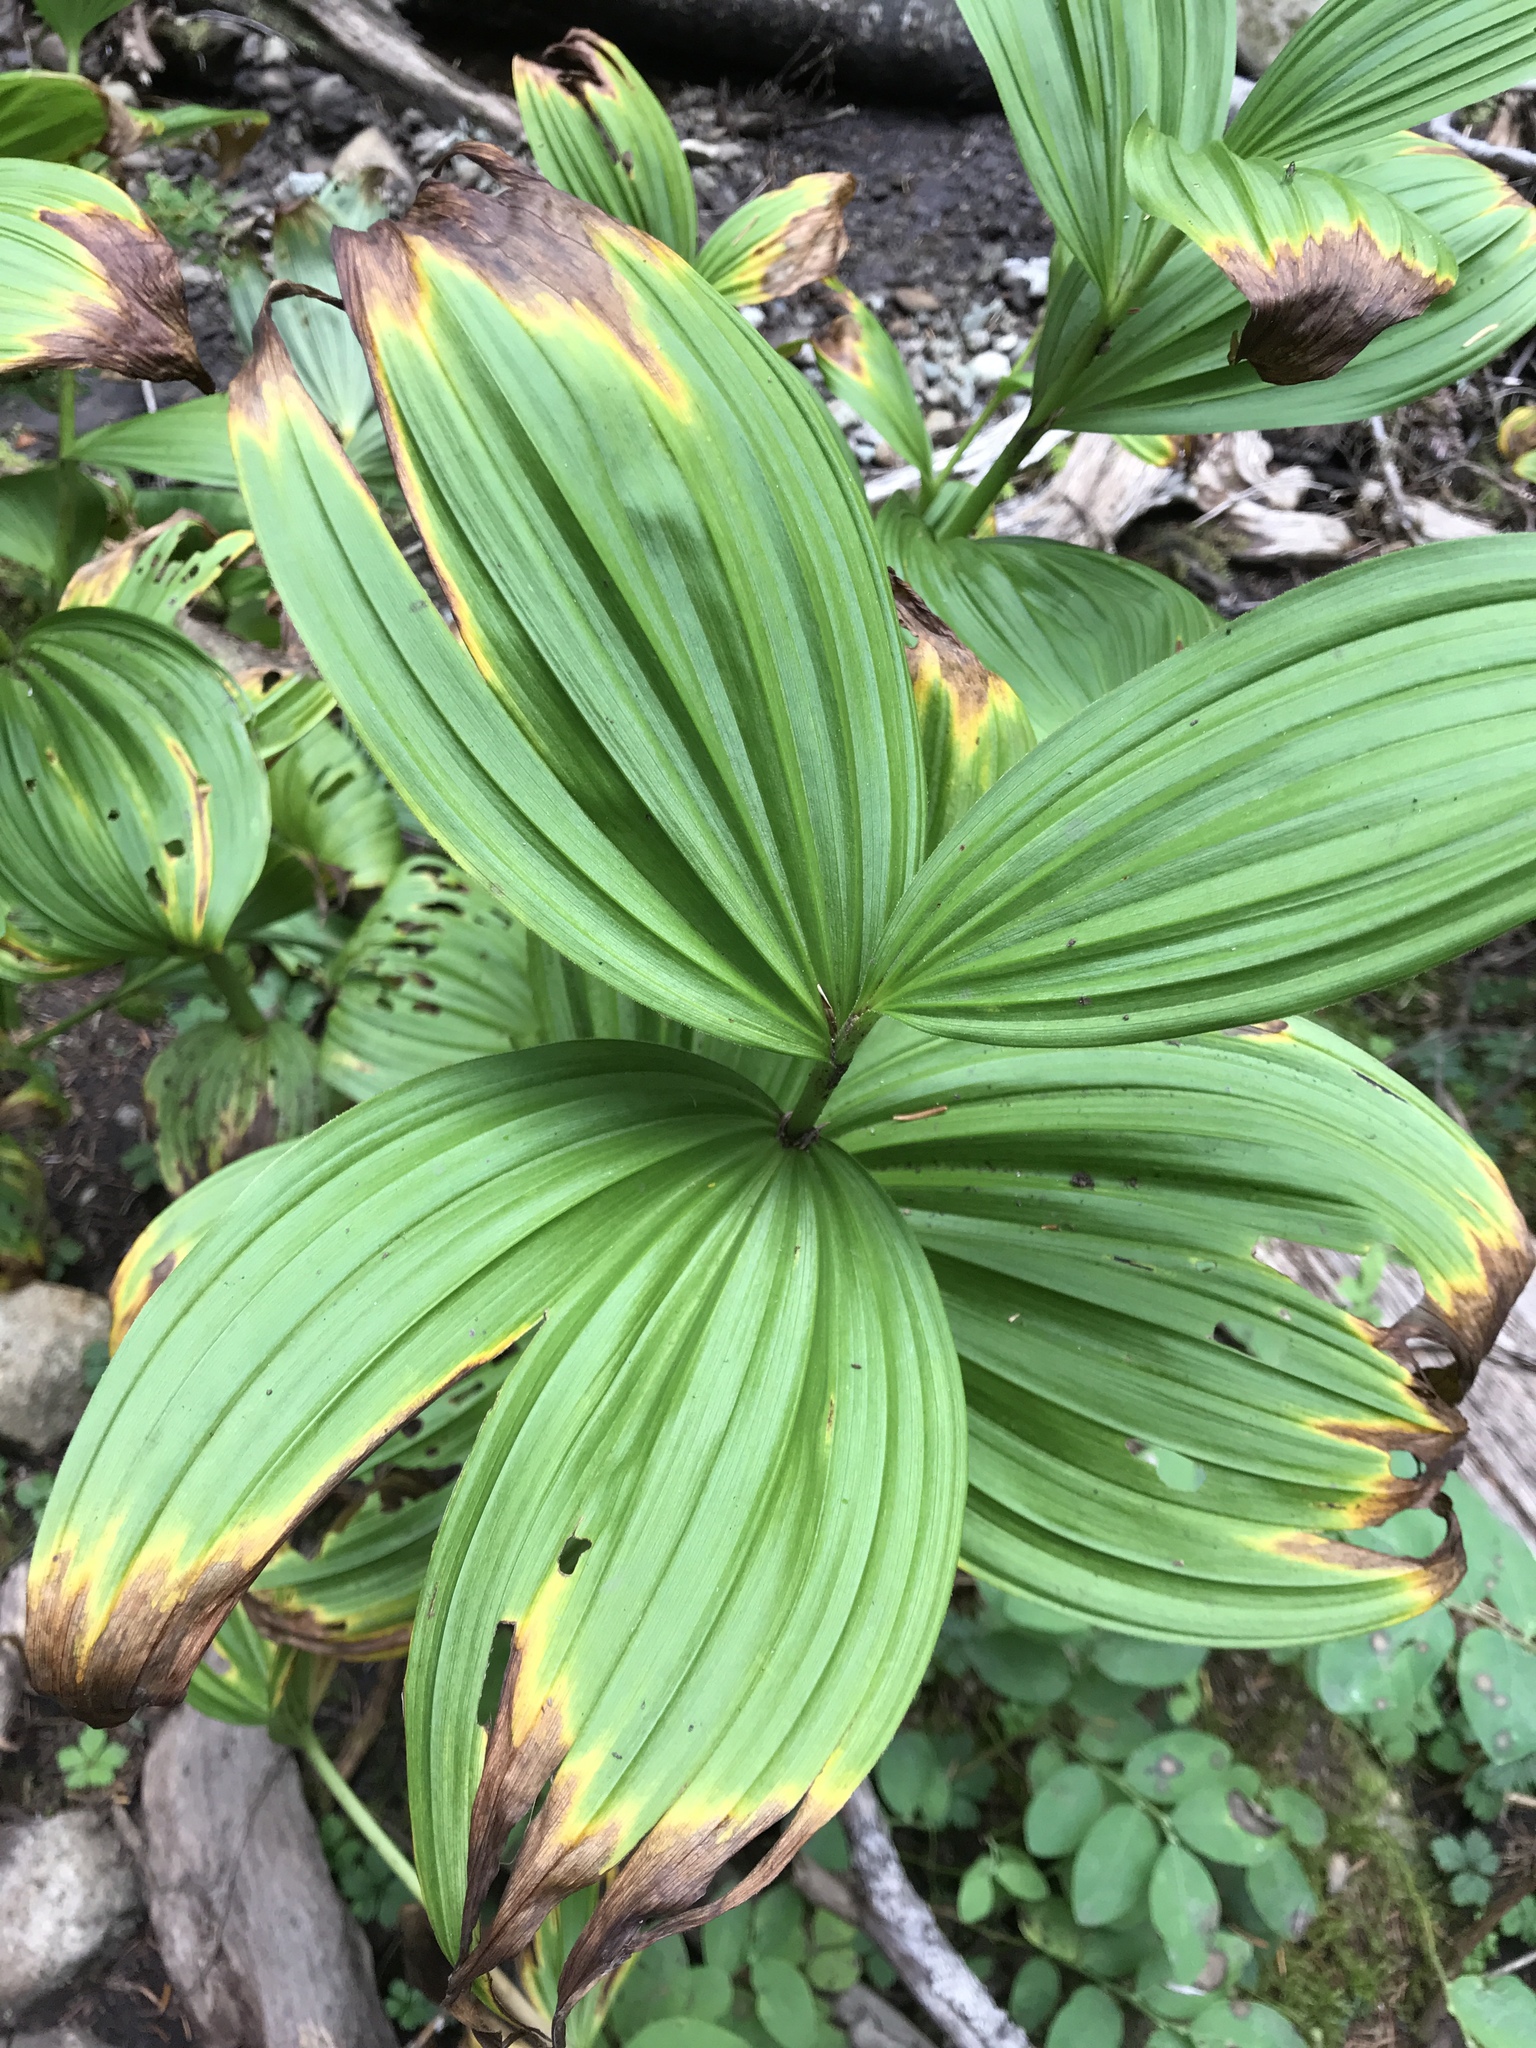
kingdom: Plantae
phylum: Tracheophyta
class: Liliopsida
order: Liliales
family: Melanthiaceae
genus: Veratrum
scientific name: Veratrum viride
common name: American false hellebore
